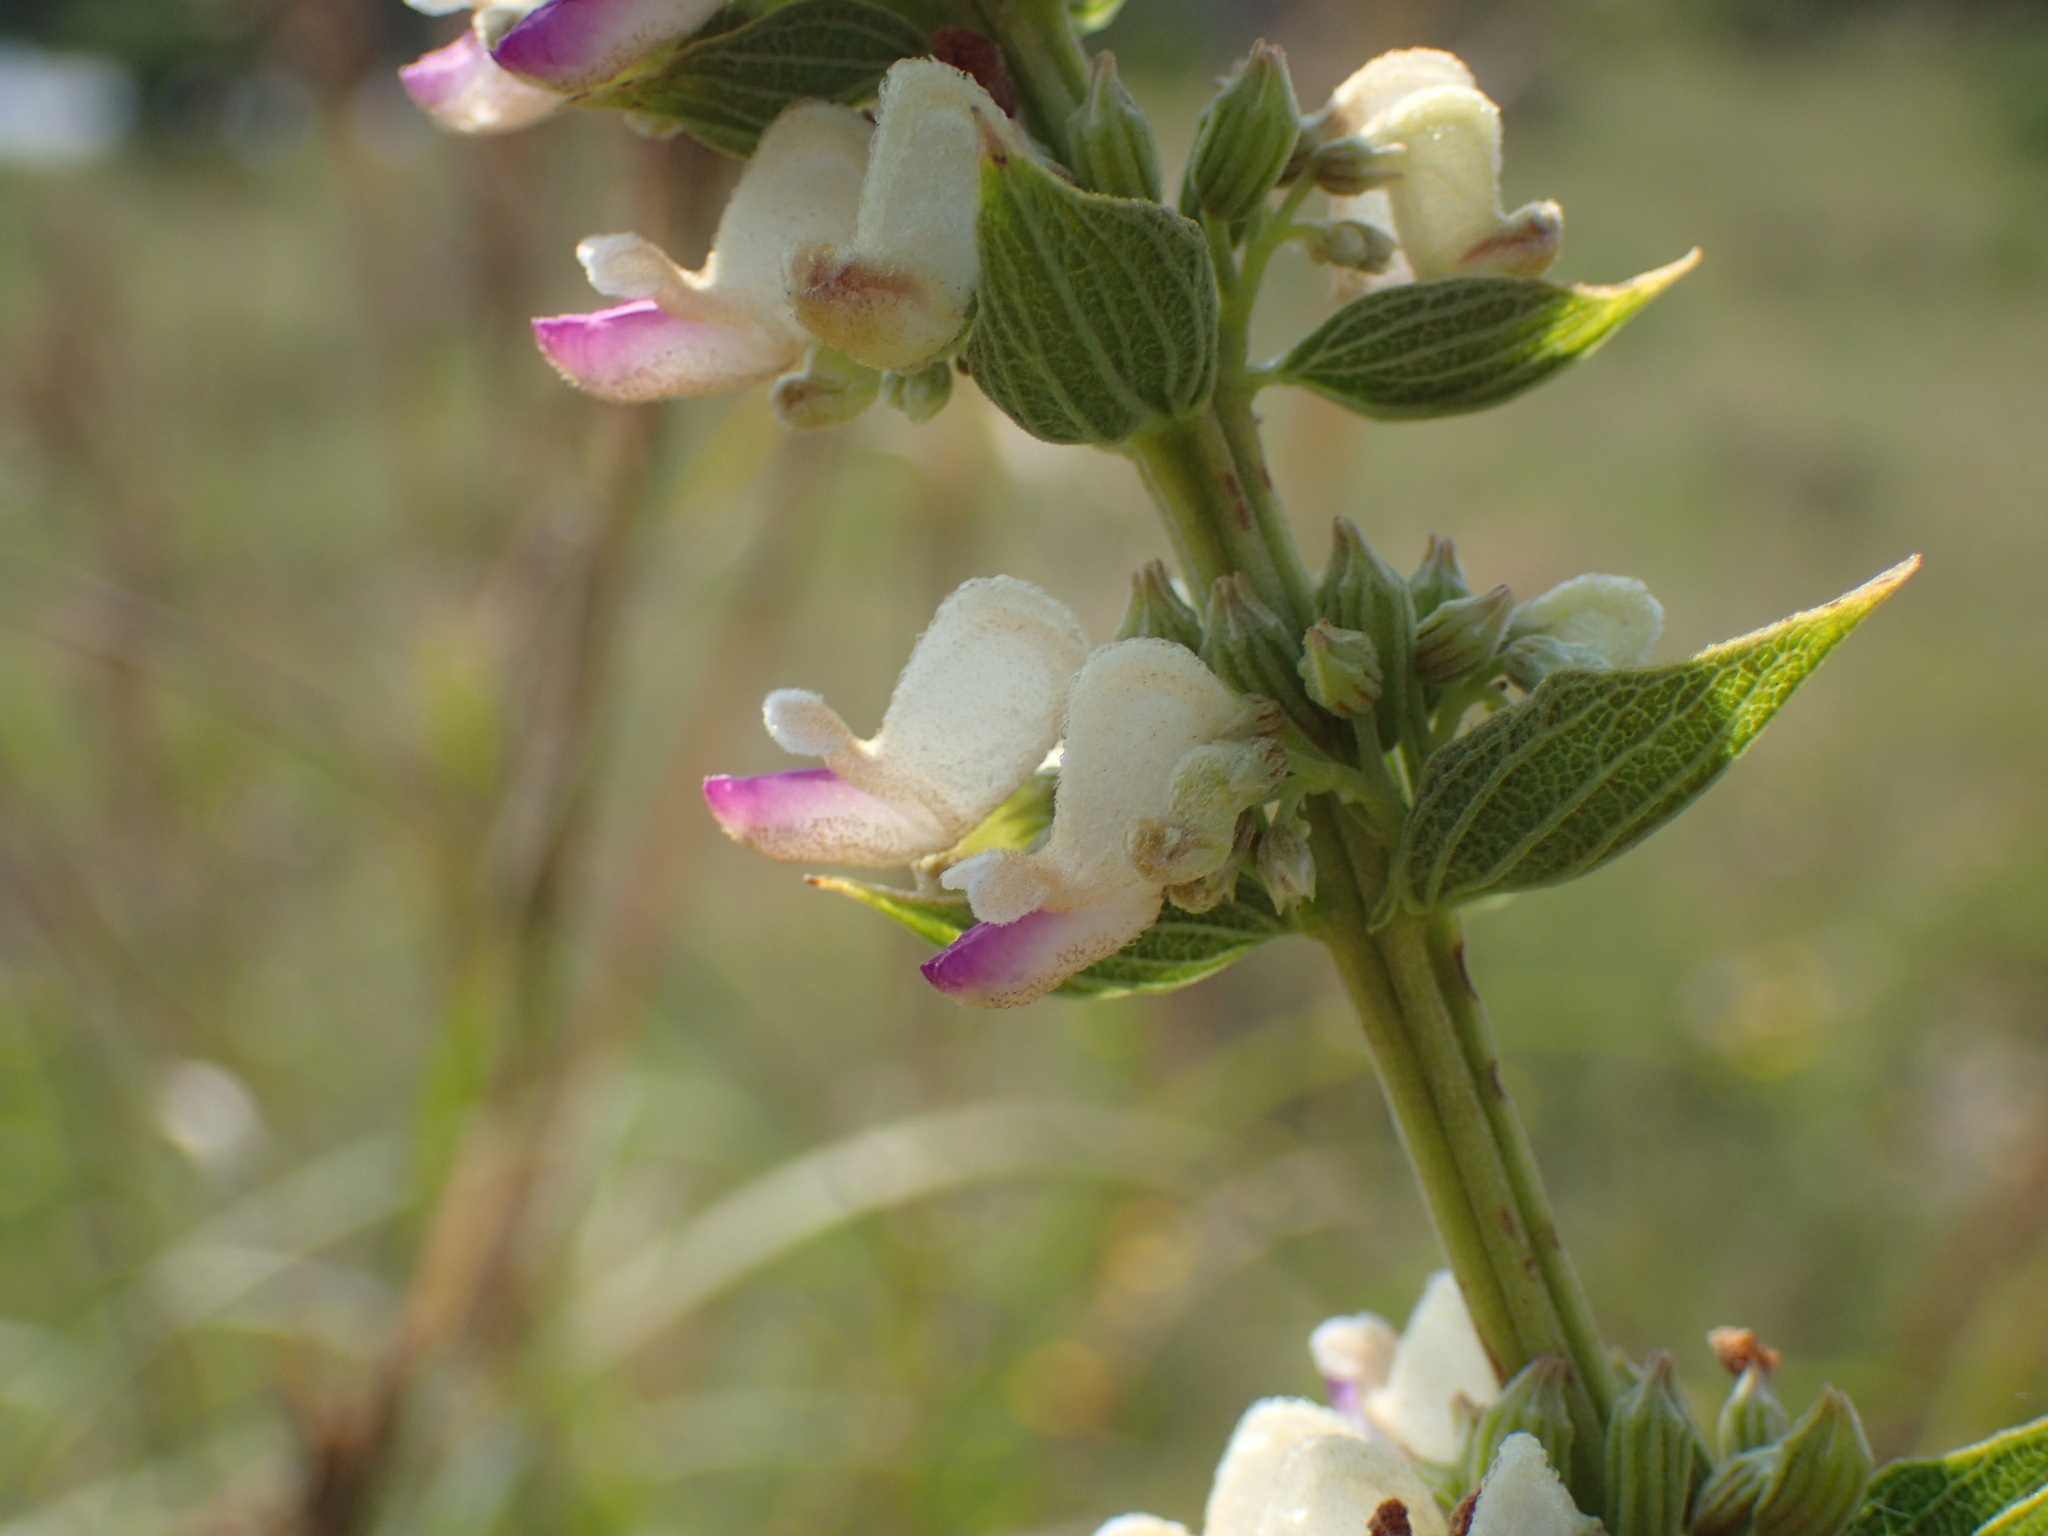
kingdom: Plantae
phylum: Tracheophyta
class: Magnoliopsida
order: Lamiales
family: Lamiaceae
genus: Coleus
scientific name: Coleus calycinus
